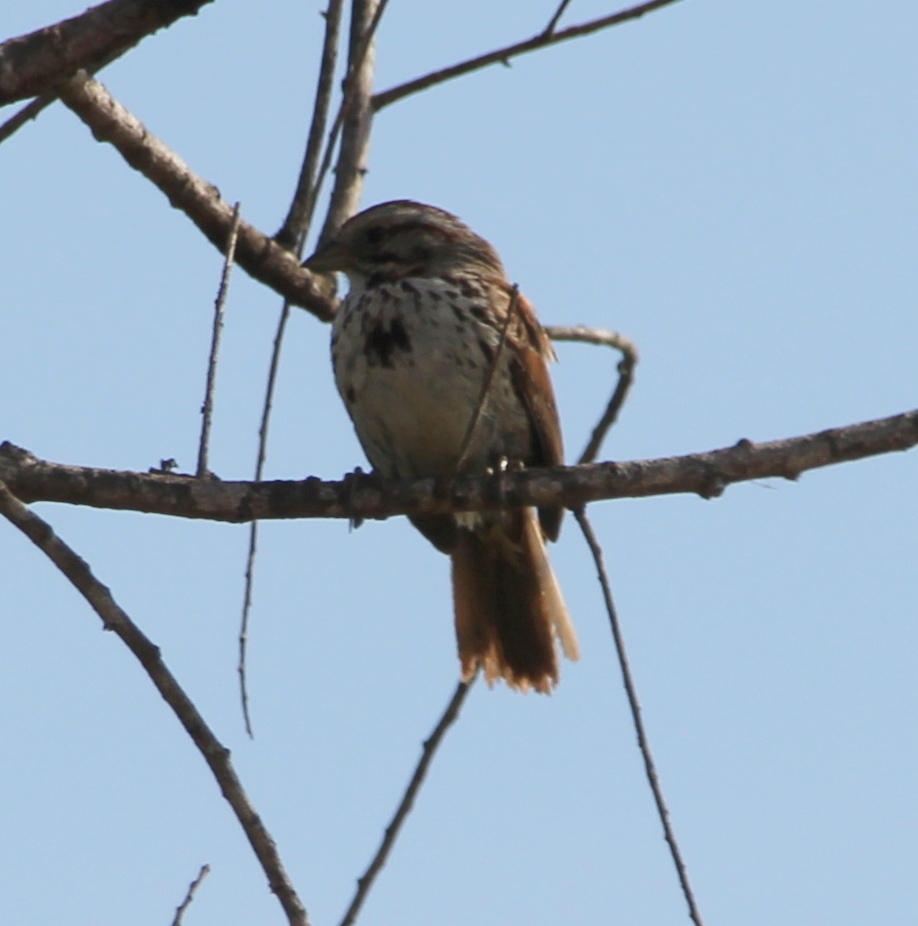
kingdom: Animalia
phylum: Chordata
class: Aves
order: Passeriformes
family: Passerellidae
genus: Melospiza
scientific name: Melospiza melodia
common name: Song sparrow
